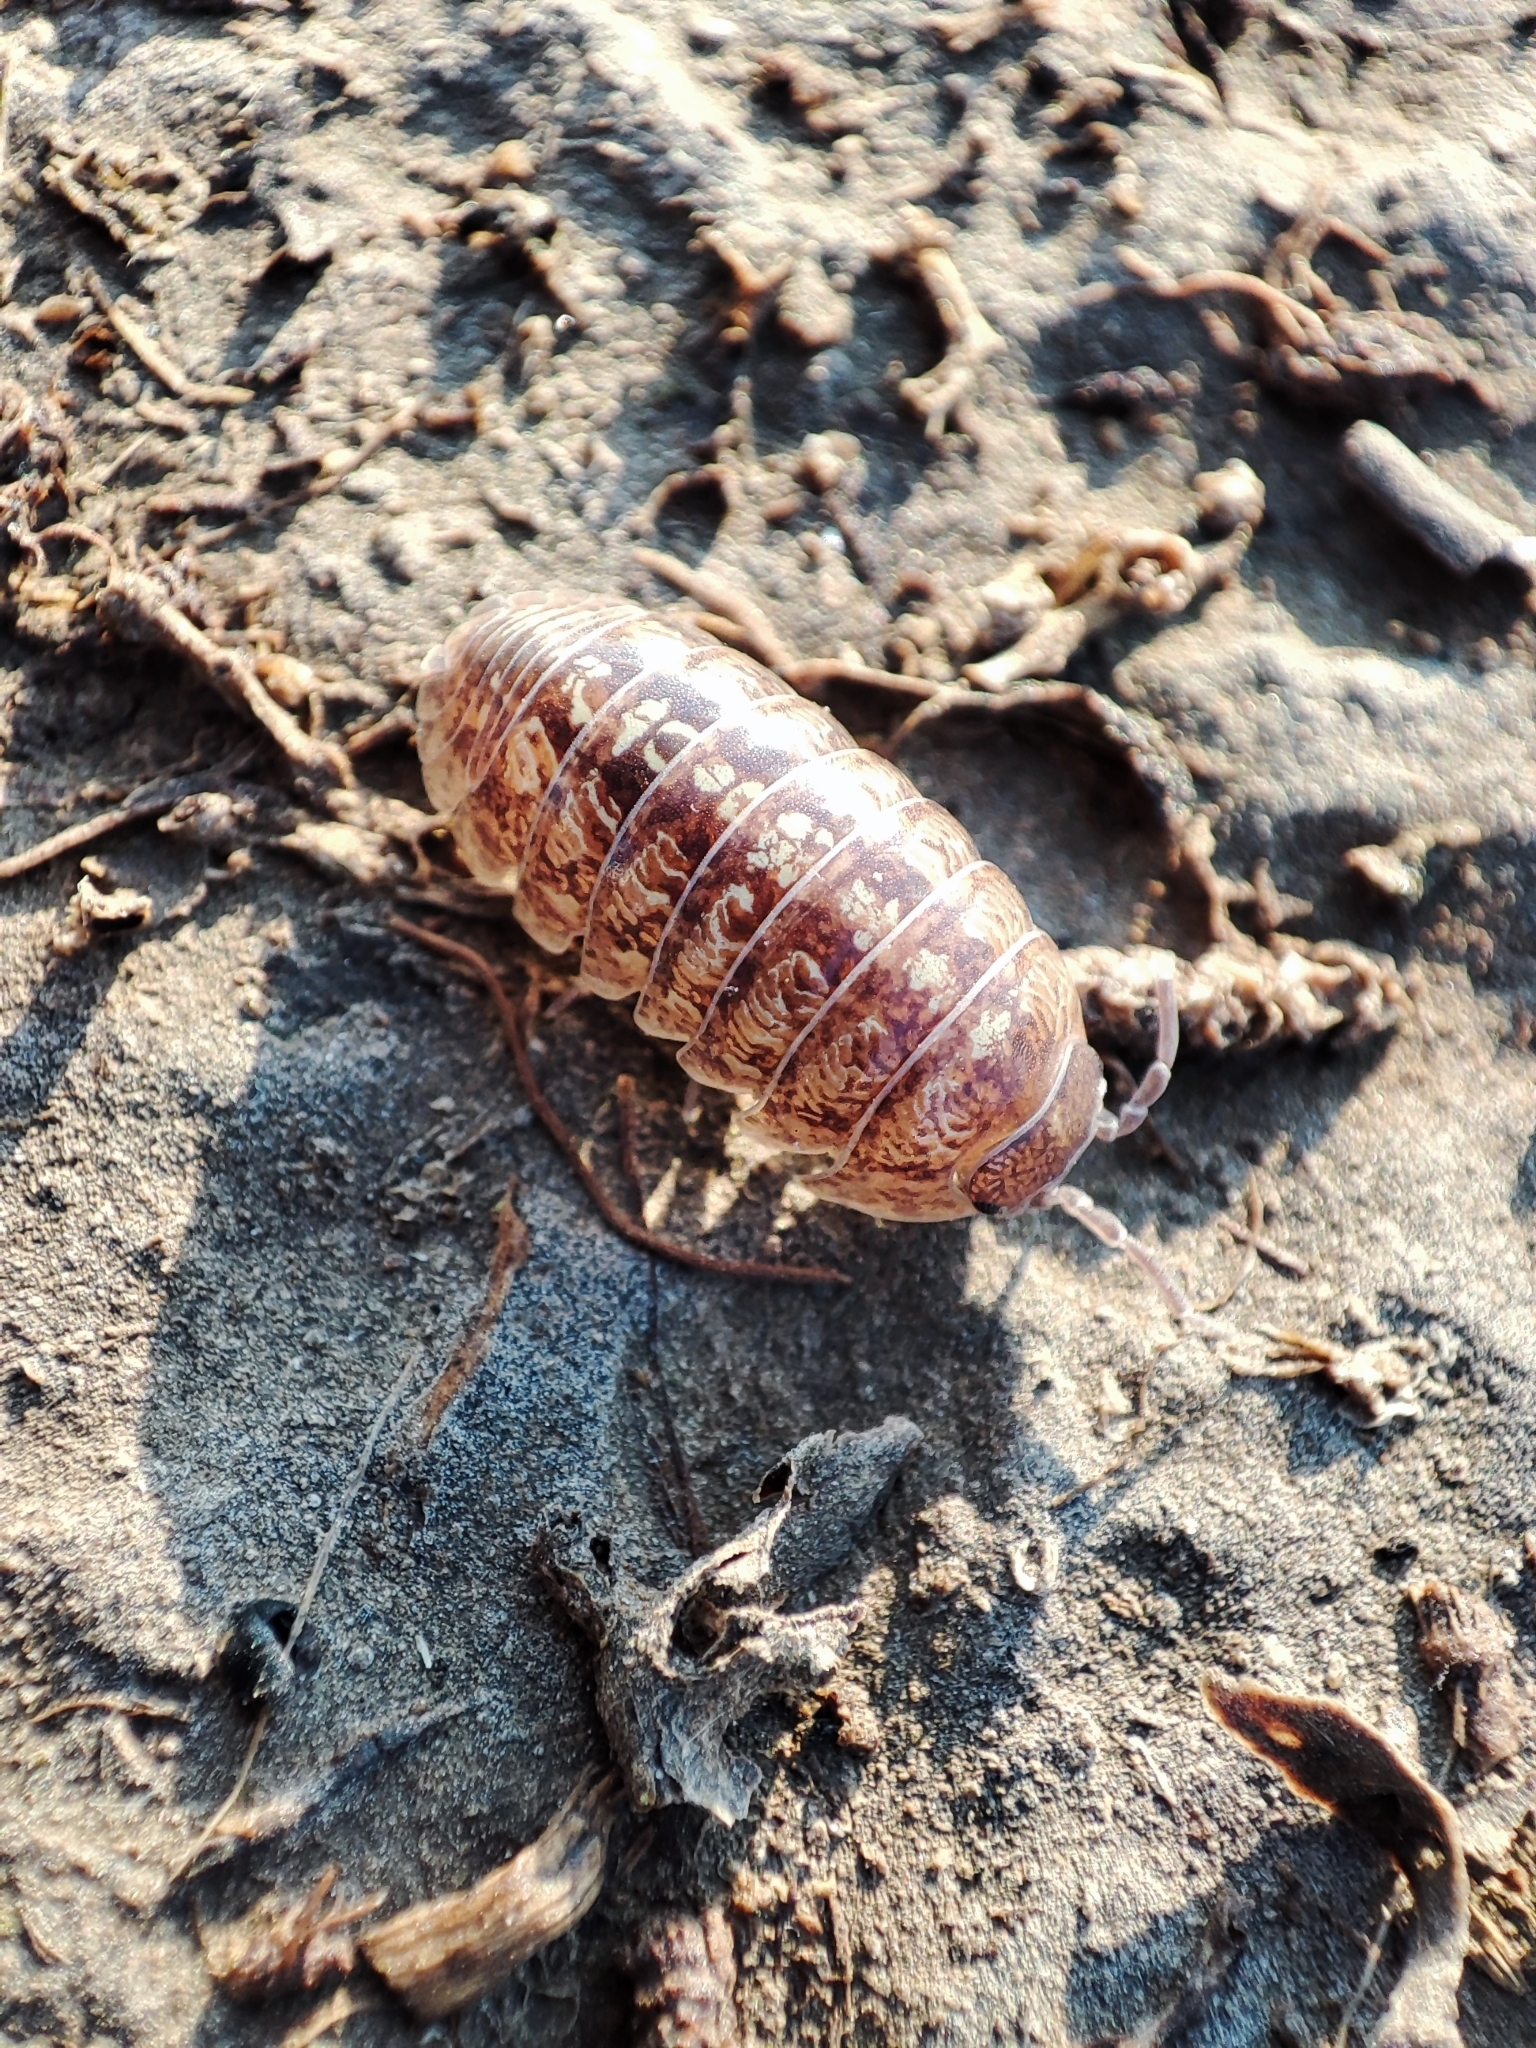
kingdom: Animalia
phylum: Arthropoda
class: Malacostraca
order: Isopoda
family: Armadillidiidae
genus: Armadillidium
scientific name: Armadillidium traiani
